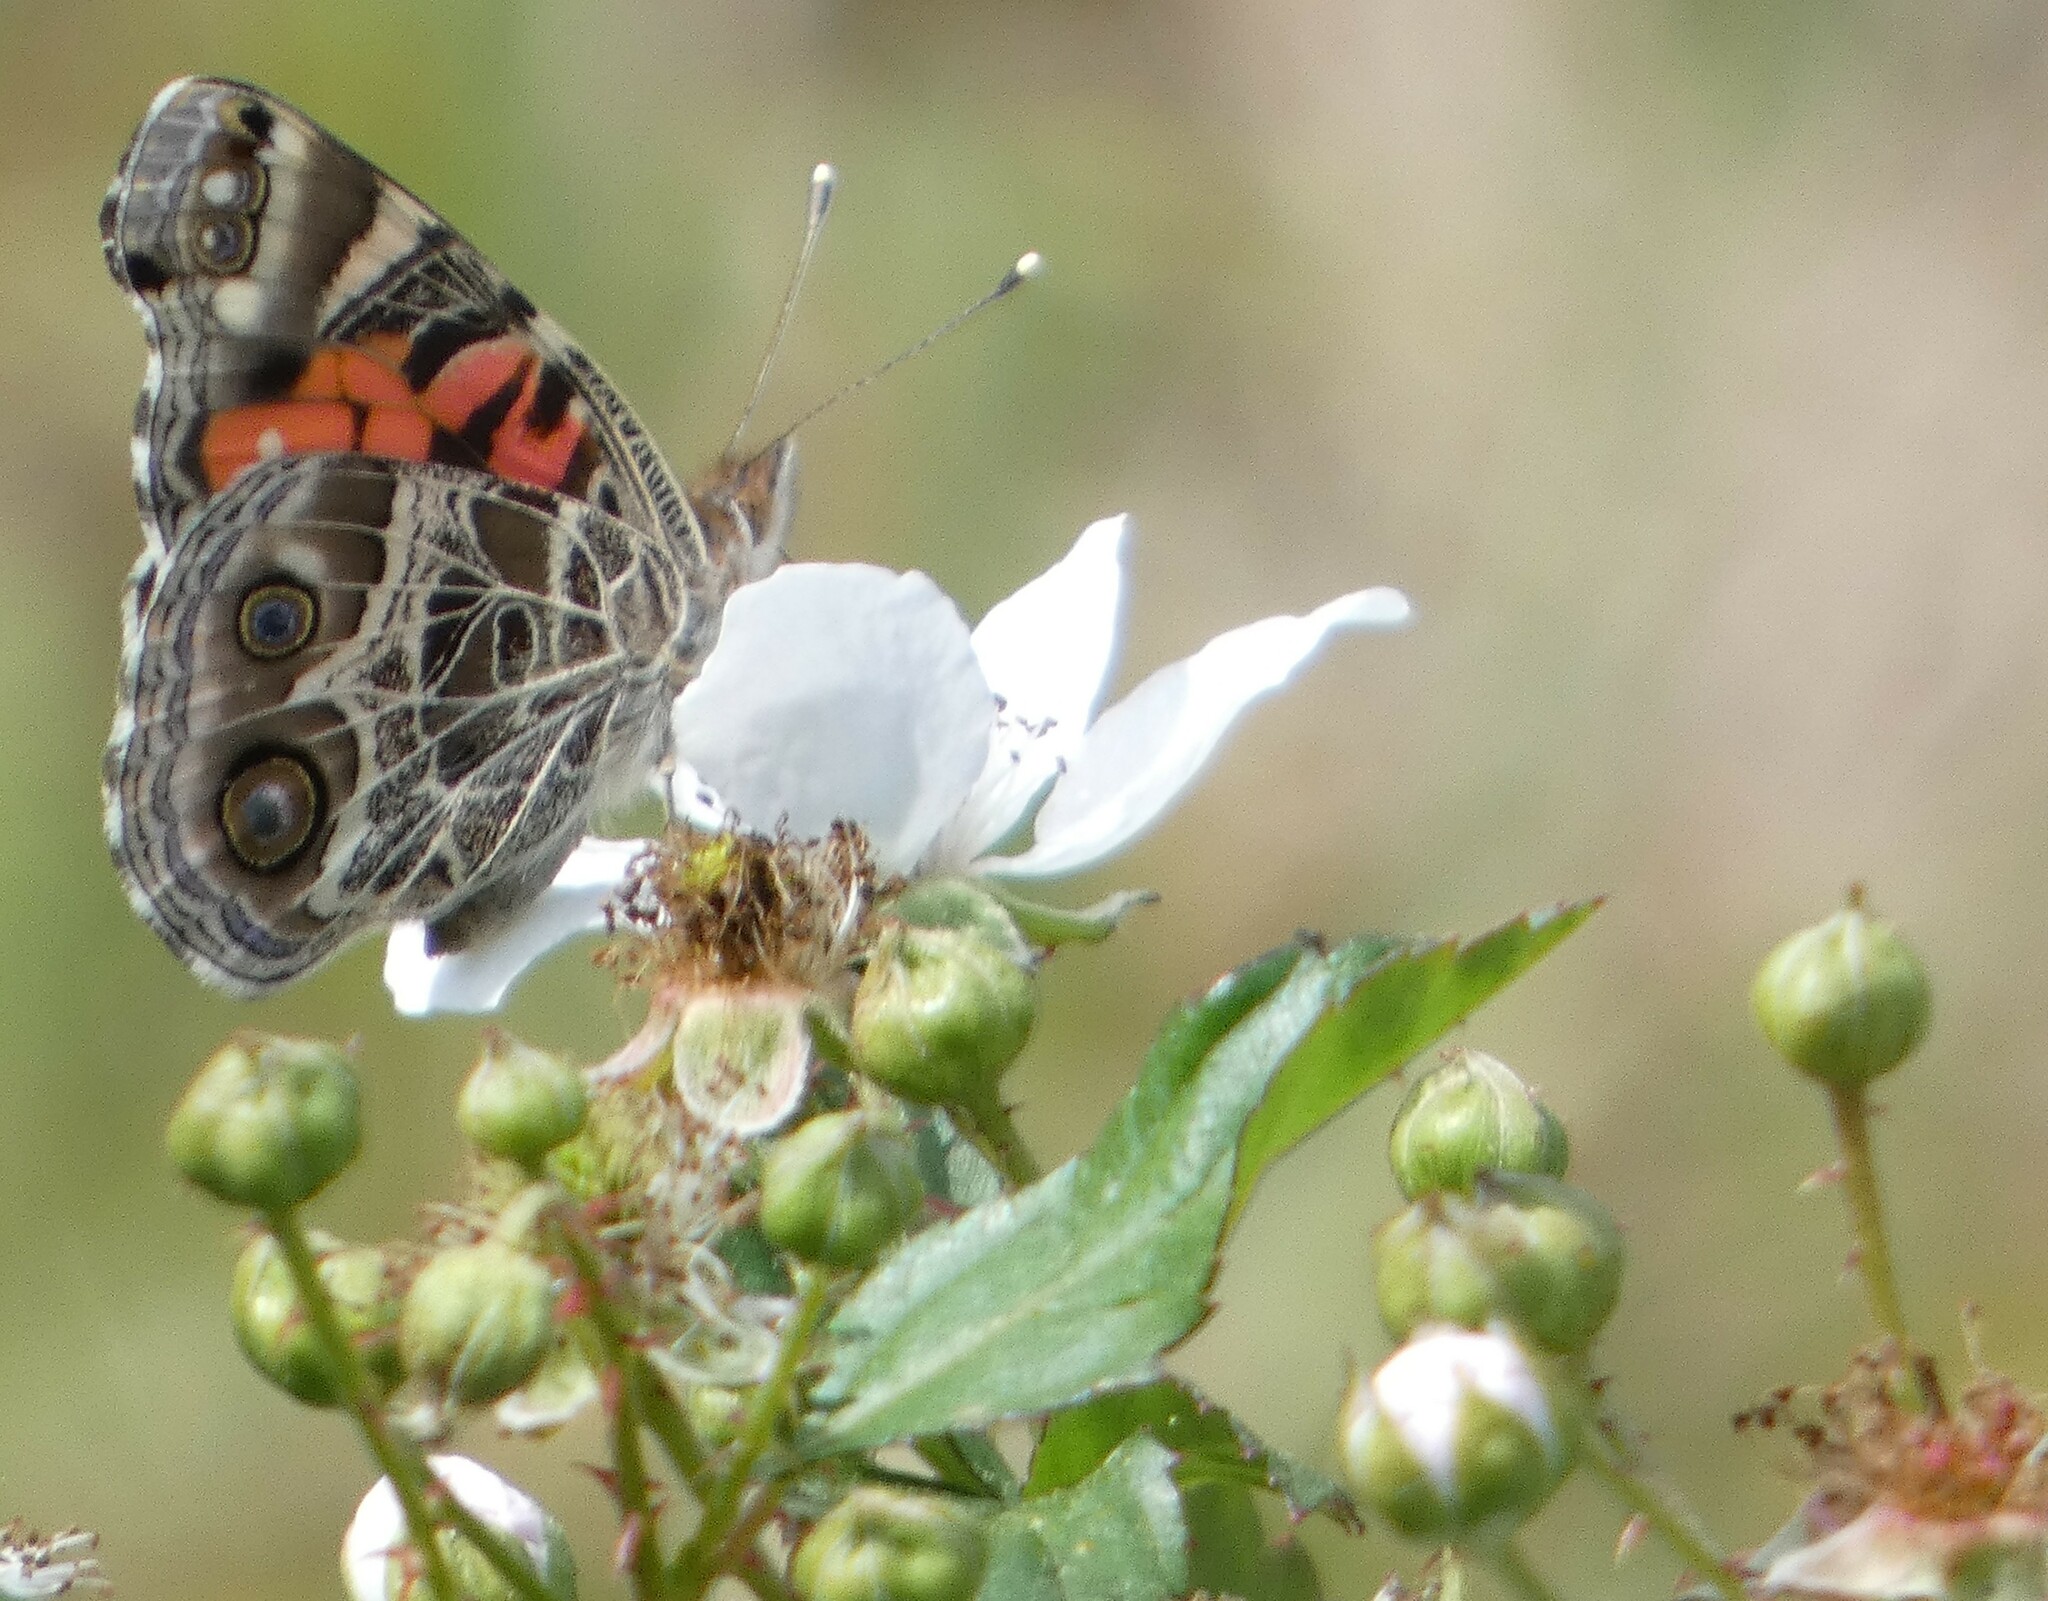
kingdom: Animalia
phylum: Arthropoda
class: Insecta
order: Lepidoptera
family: Nymphalidae
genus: Vanessa
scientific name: Vanessa virginiensis
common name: American lady
